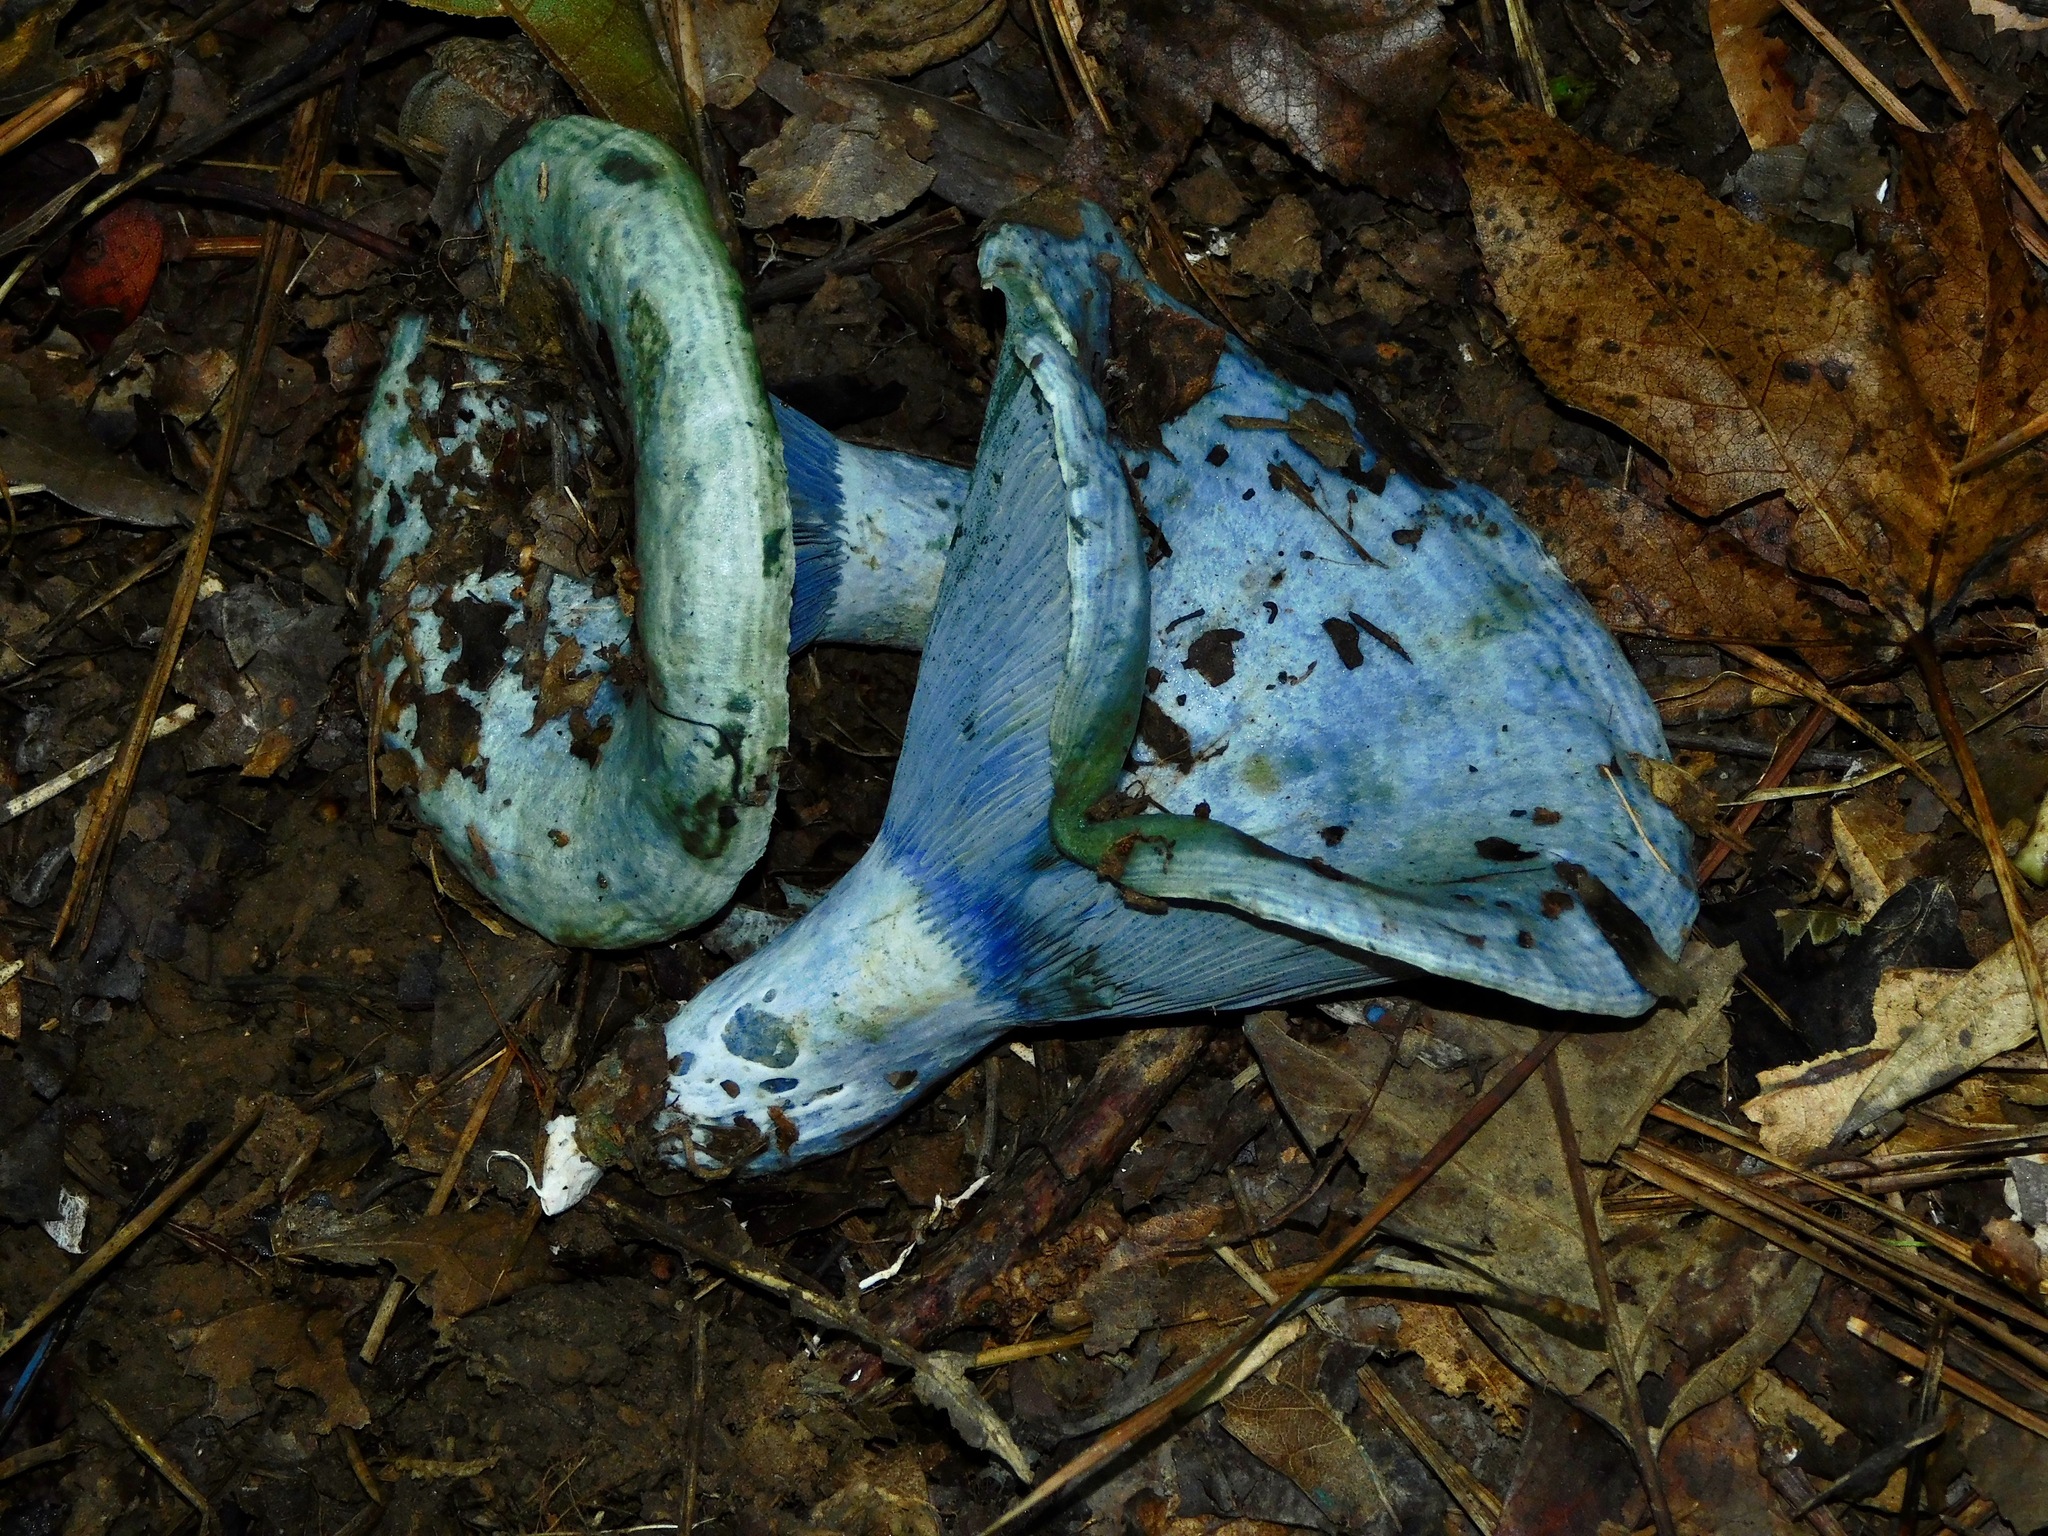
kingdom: Fungi
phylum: Basidiomycota
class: Agaricomycetes
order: Russulales
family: Russulaceae
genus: Lactarius
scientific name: Lactarius indigo
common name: Indigo milk cap
